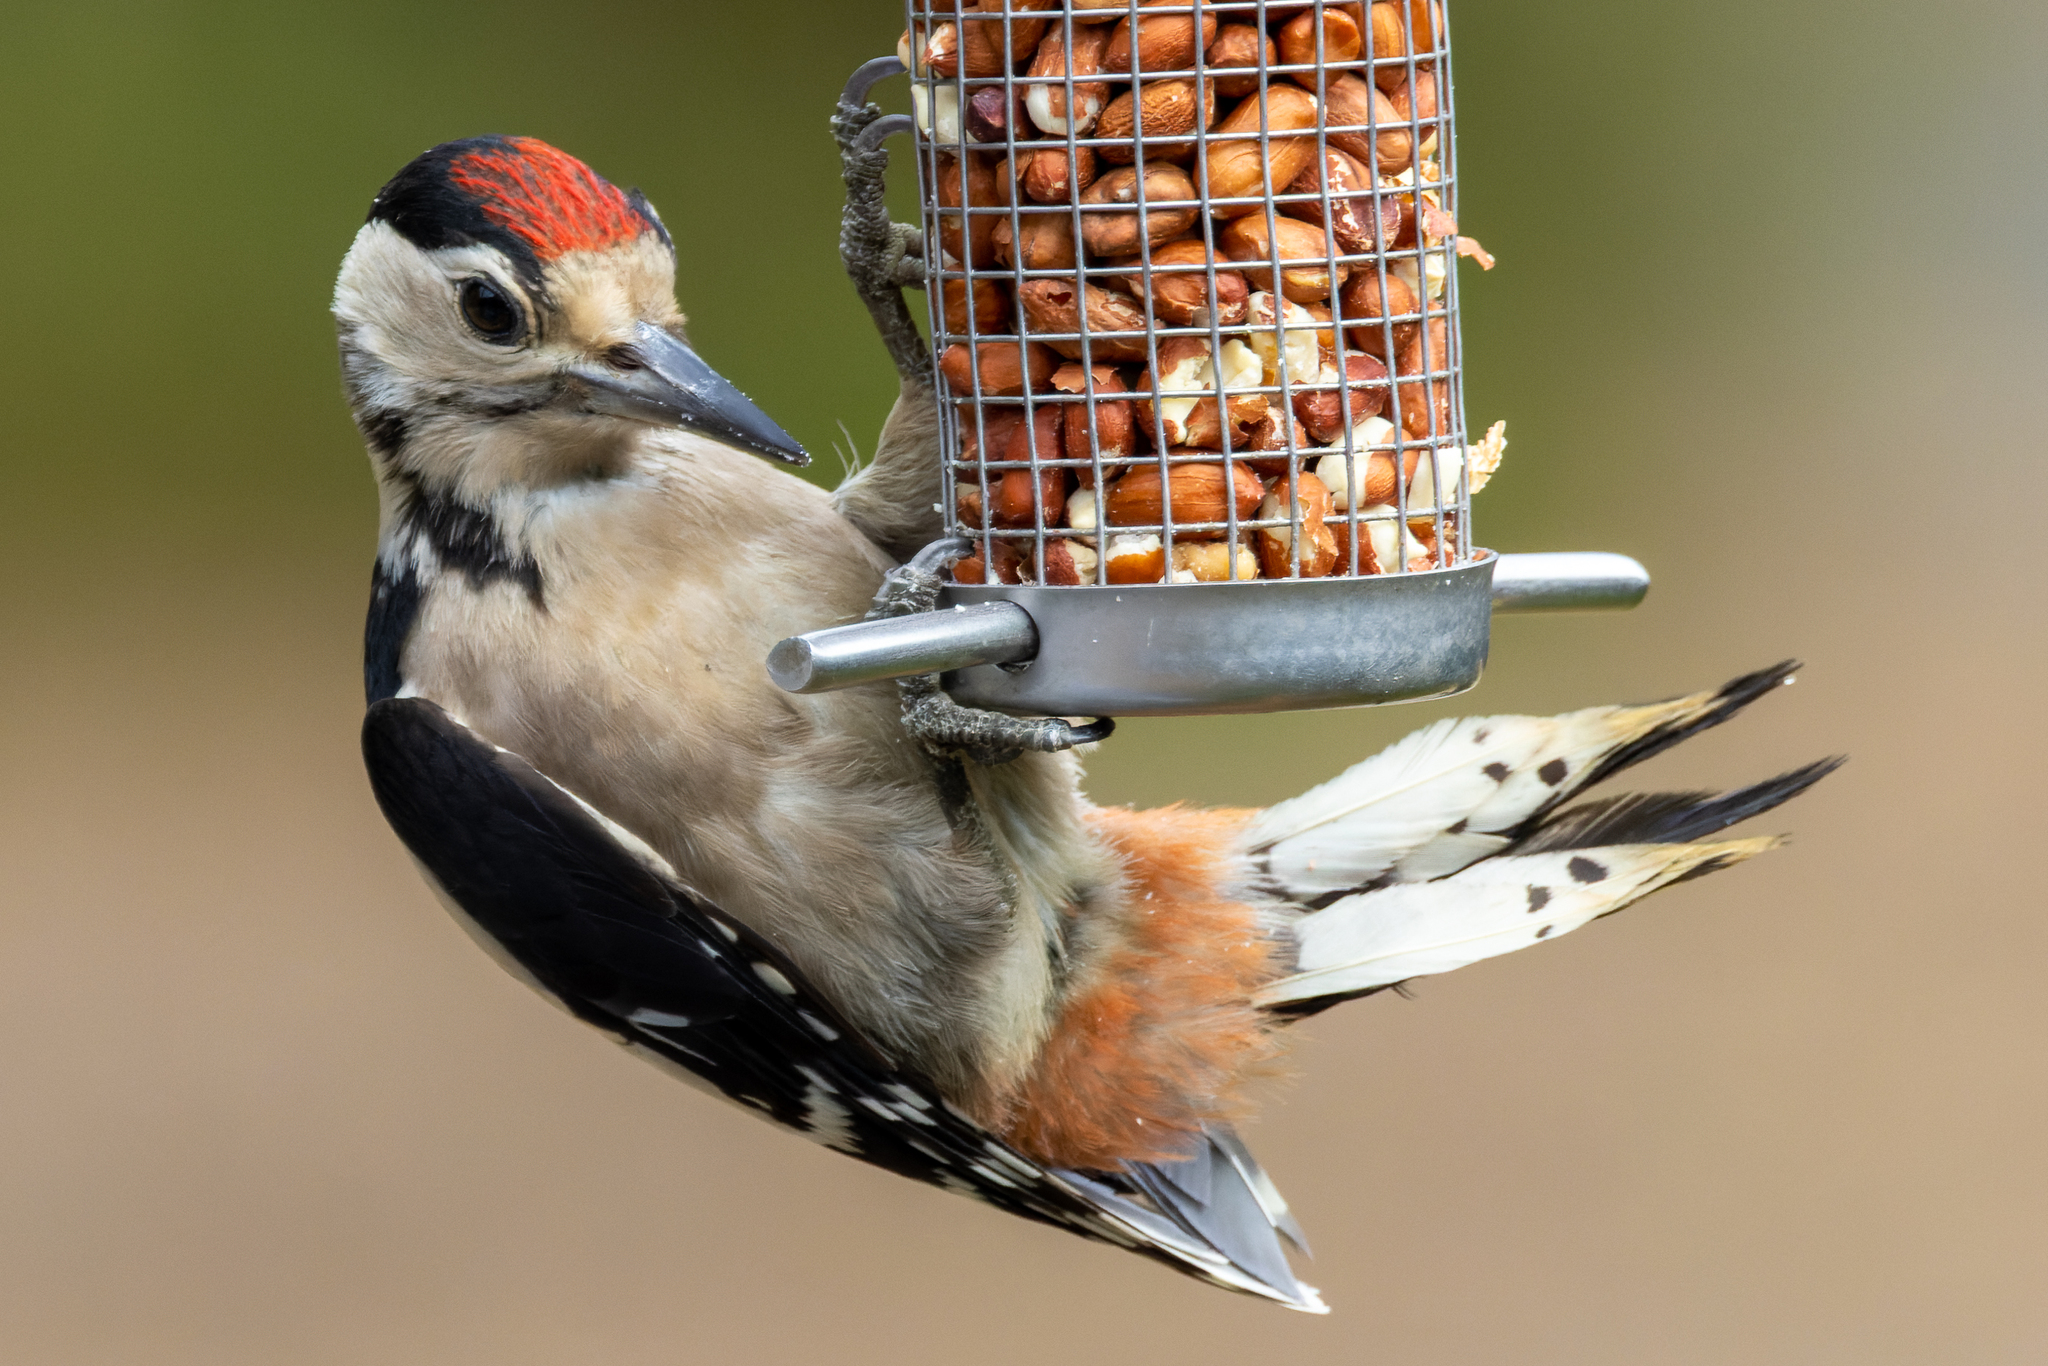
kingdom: Animalia
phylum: Chordata
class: Aves
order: Piciformes
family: Picidae
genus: Dendrocopos
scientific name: Dendrocopos major
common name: Great spotted woodpecker
